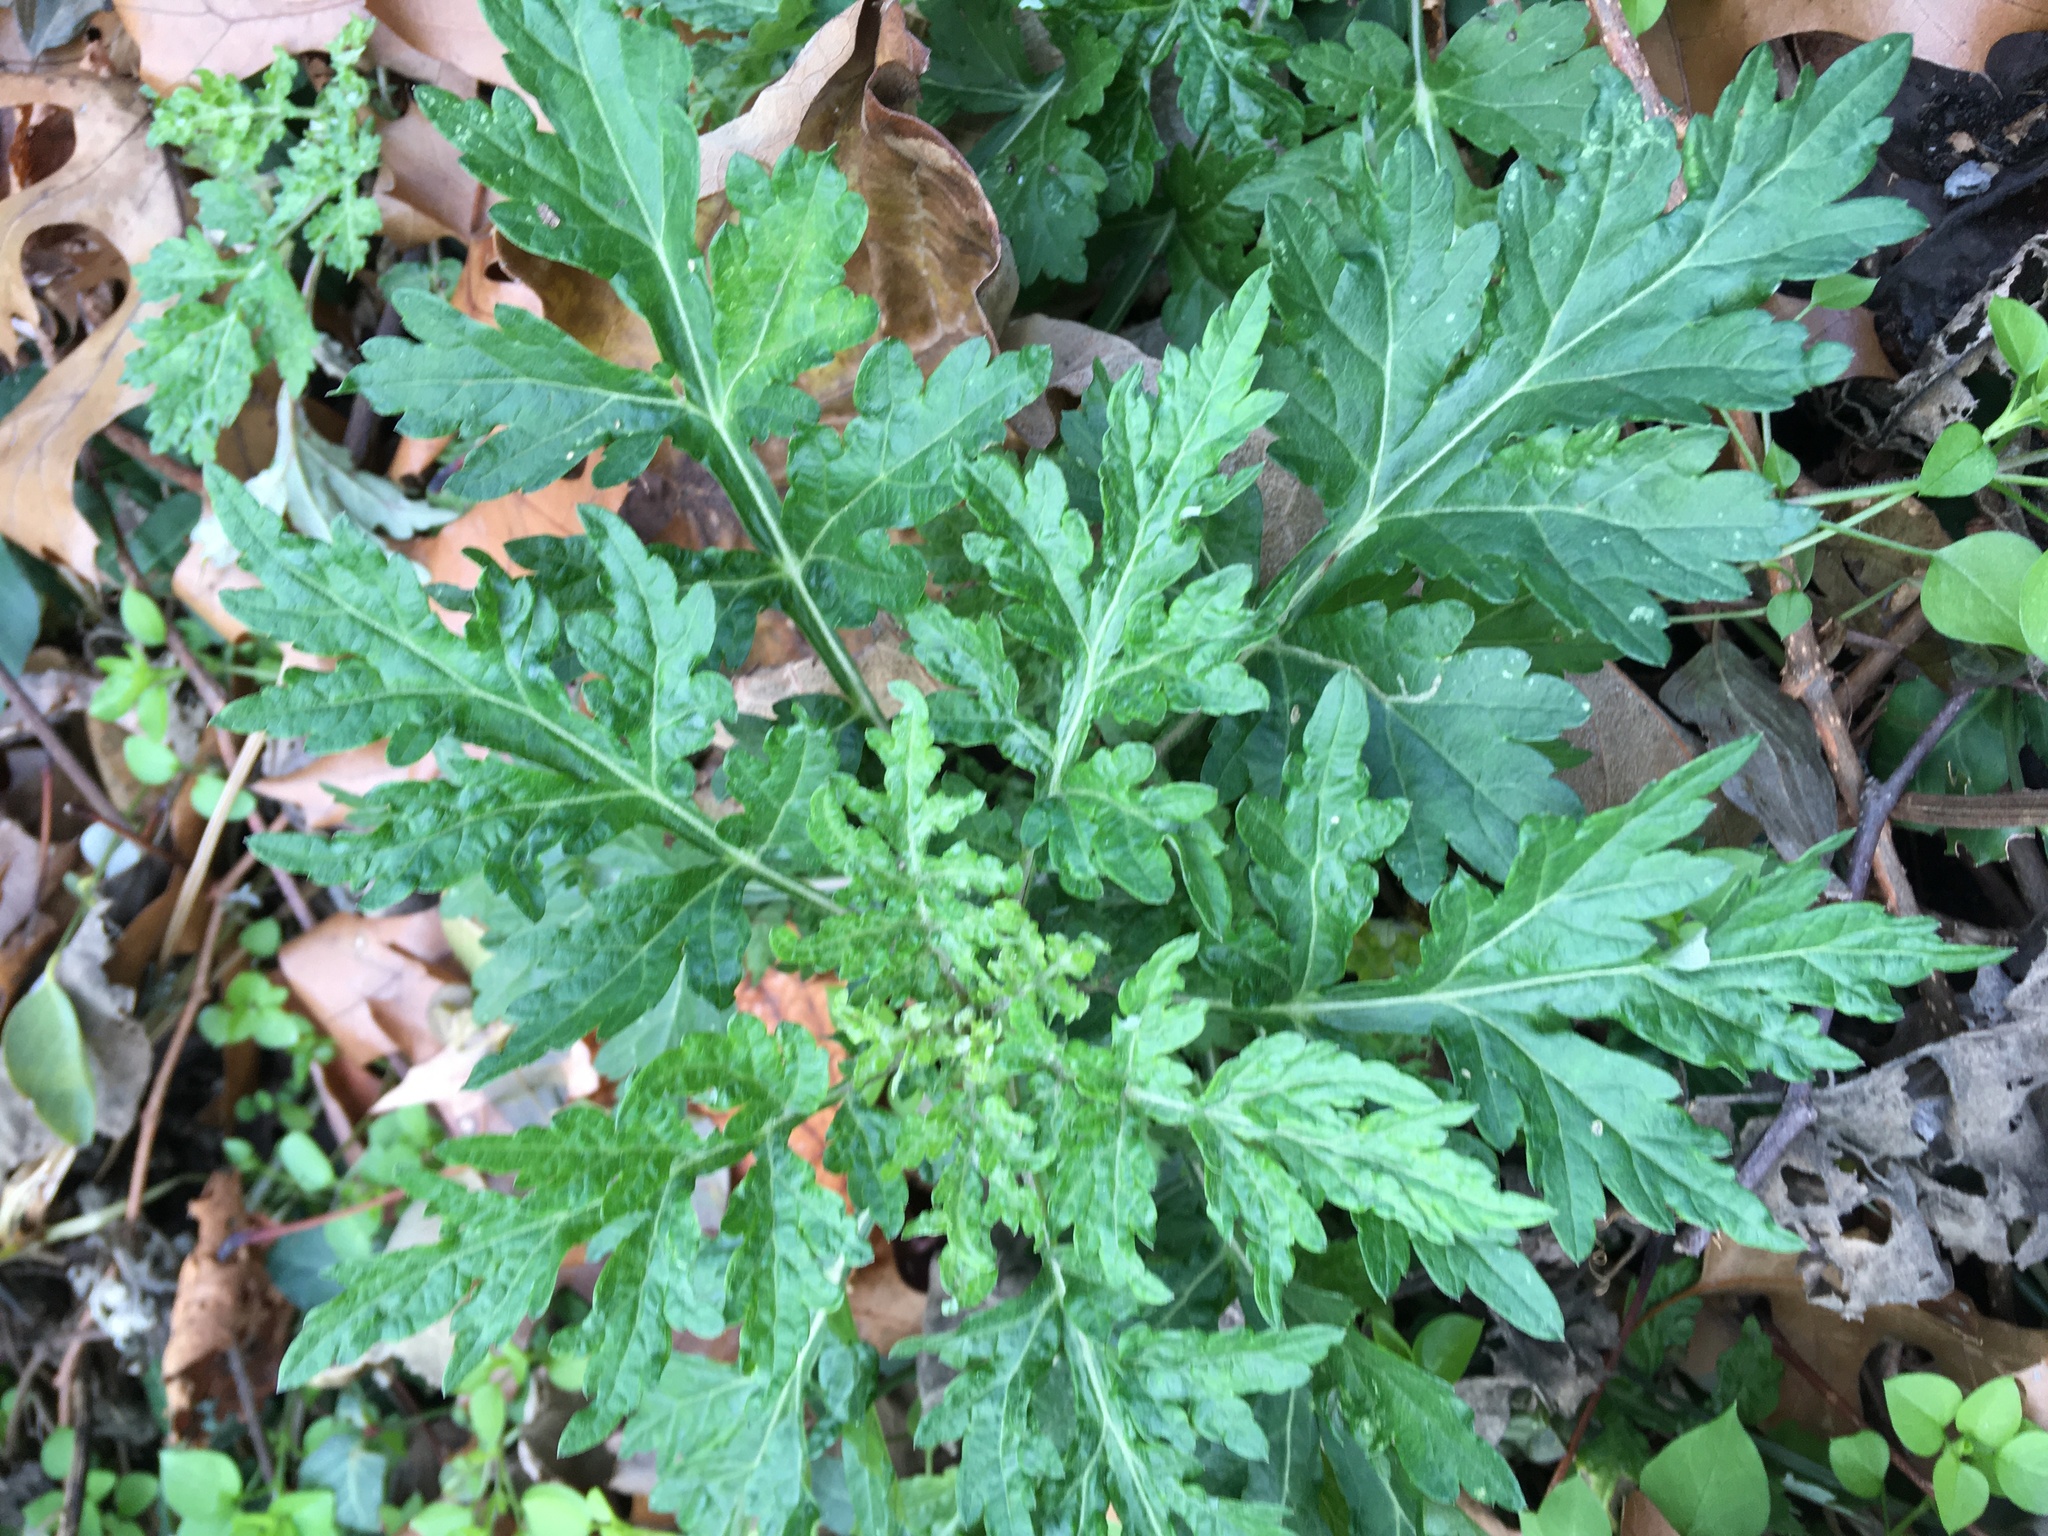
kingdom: Plantae
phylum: Tracheophyta
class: Magnoliopsida
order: Asterales
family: Asteraceae
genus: Artemisia
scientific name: Artemisia vulgaris
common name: Mugwort
